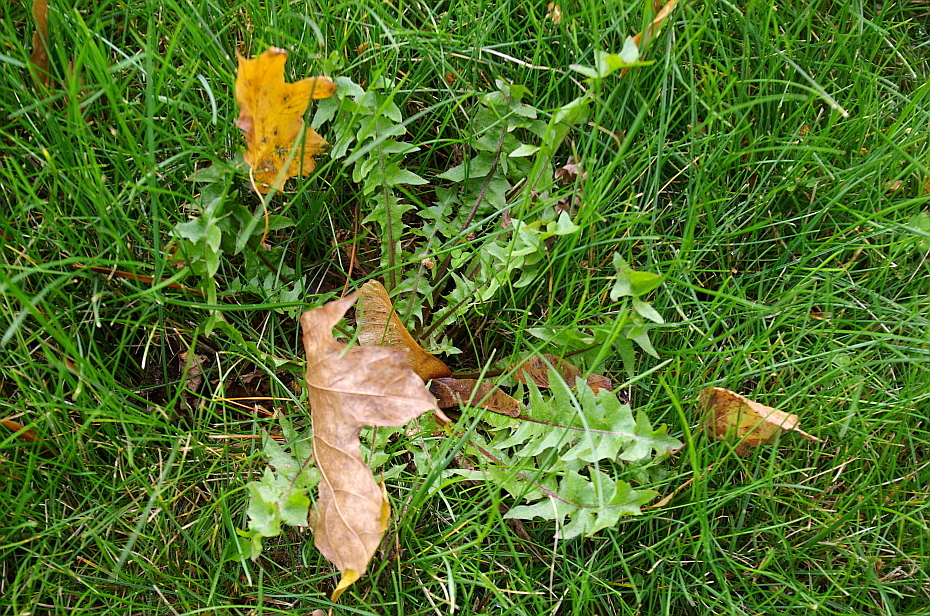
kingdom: Plantae
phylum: Tracheophyta
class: Magnoliopsida
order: Asterales
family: Asteraceae
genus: Taraxacum
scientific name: Taraxacum officinale
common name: Common dandelion
